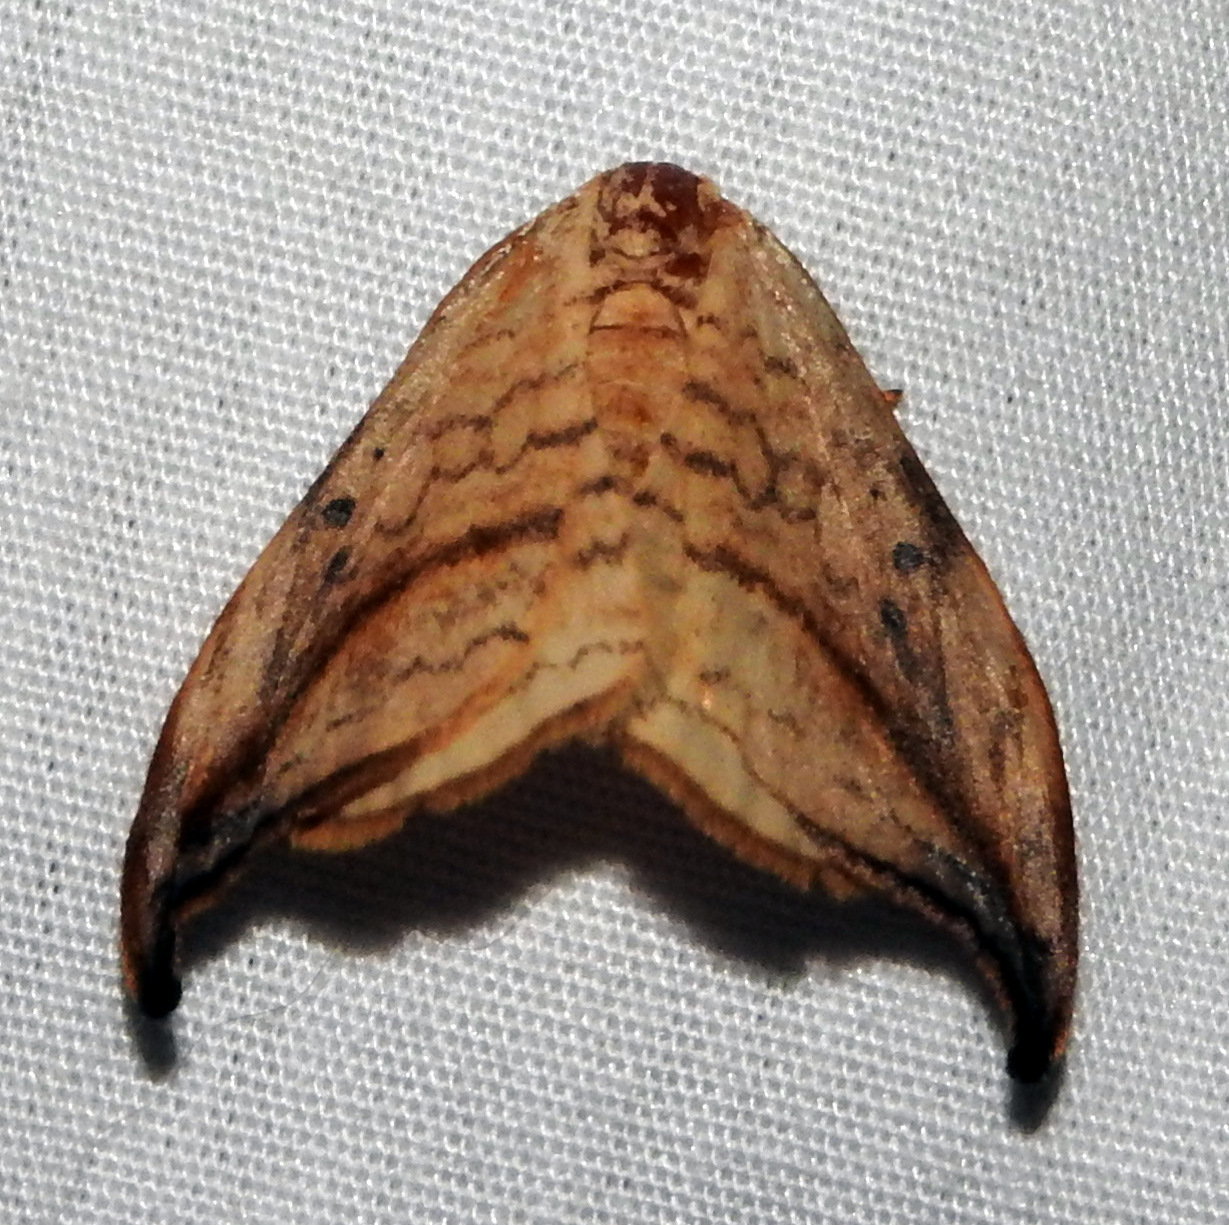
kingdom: Animalia
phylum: Arthropoda
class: Insecta
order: Lepidoptera
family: Drepanidae
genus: Drepana
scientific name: Drepana arcuata
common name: Arched hooktip moth
